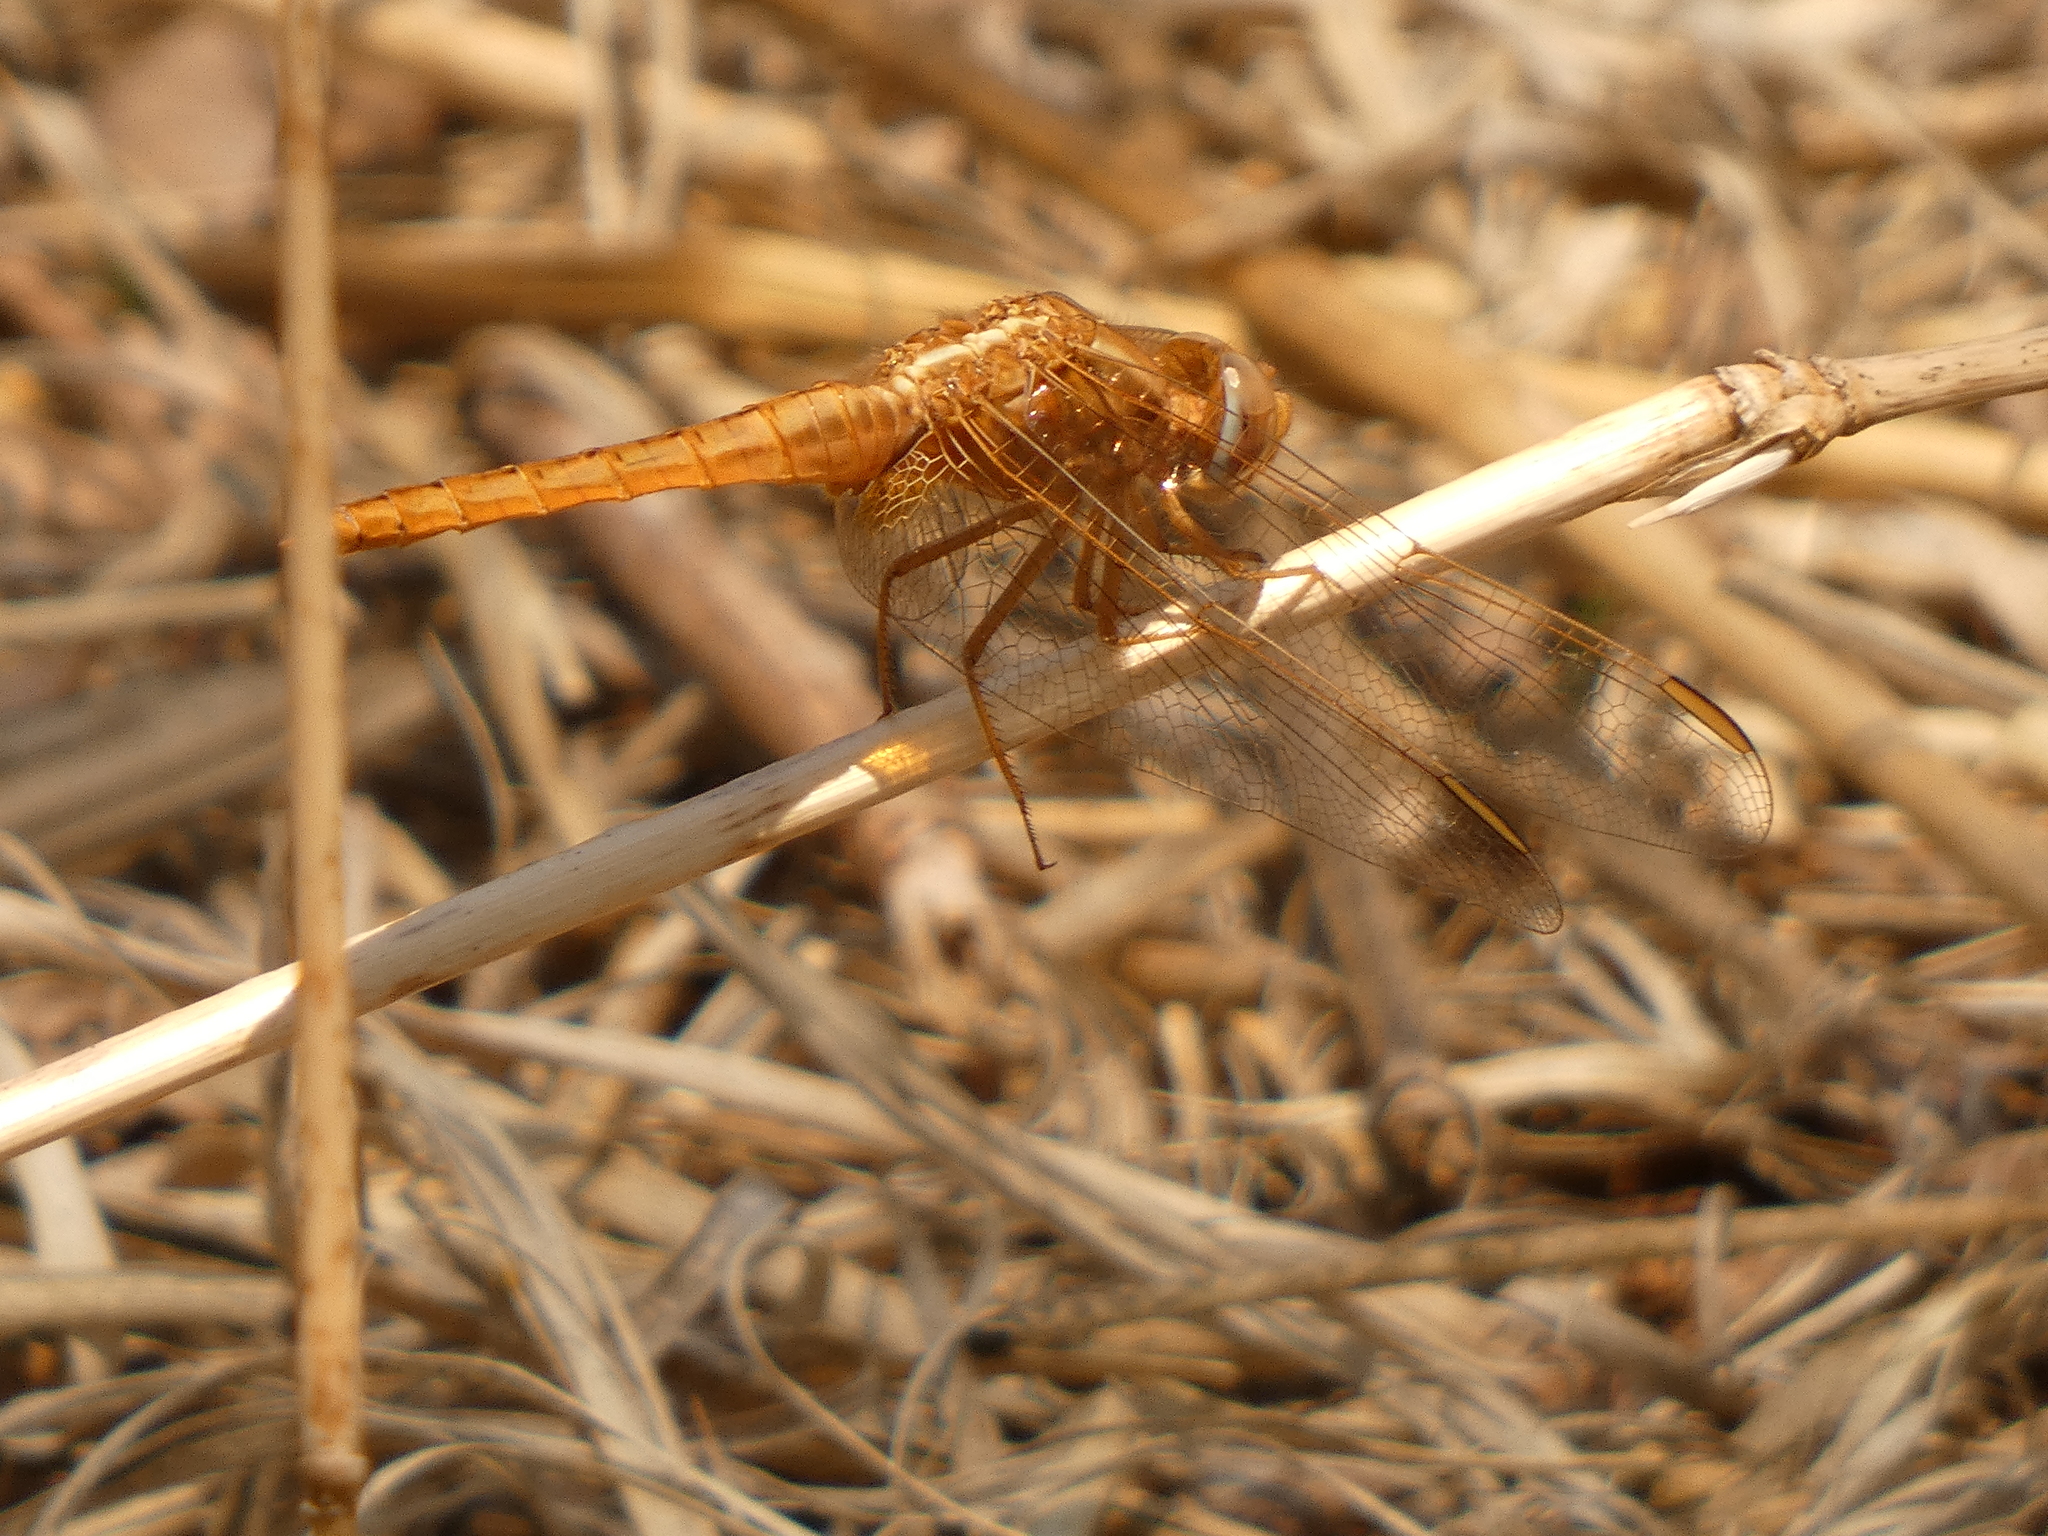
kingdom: Animalia
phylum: Arthropoda
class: Insecta
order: Odonata
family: Libellulidae
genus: Crocothemis
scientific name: Crocothemis erythraea
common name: Scarlet dragonfly
